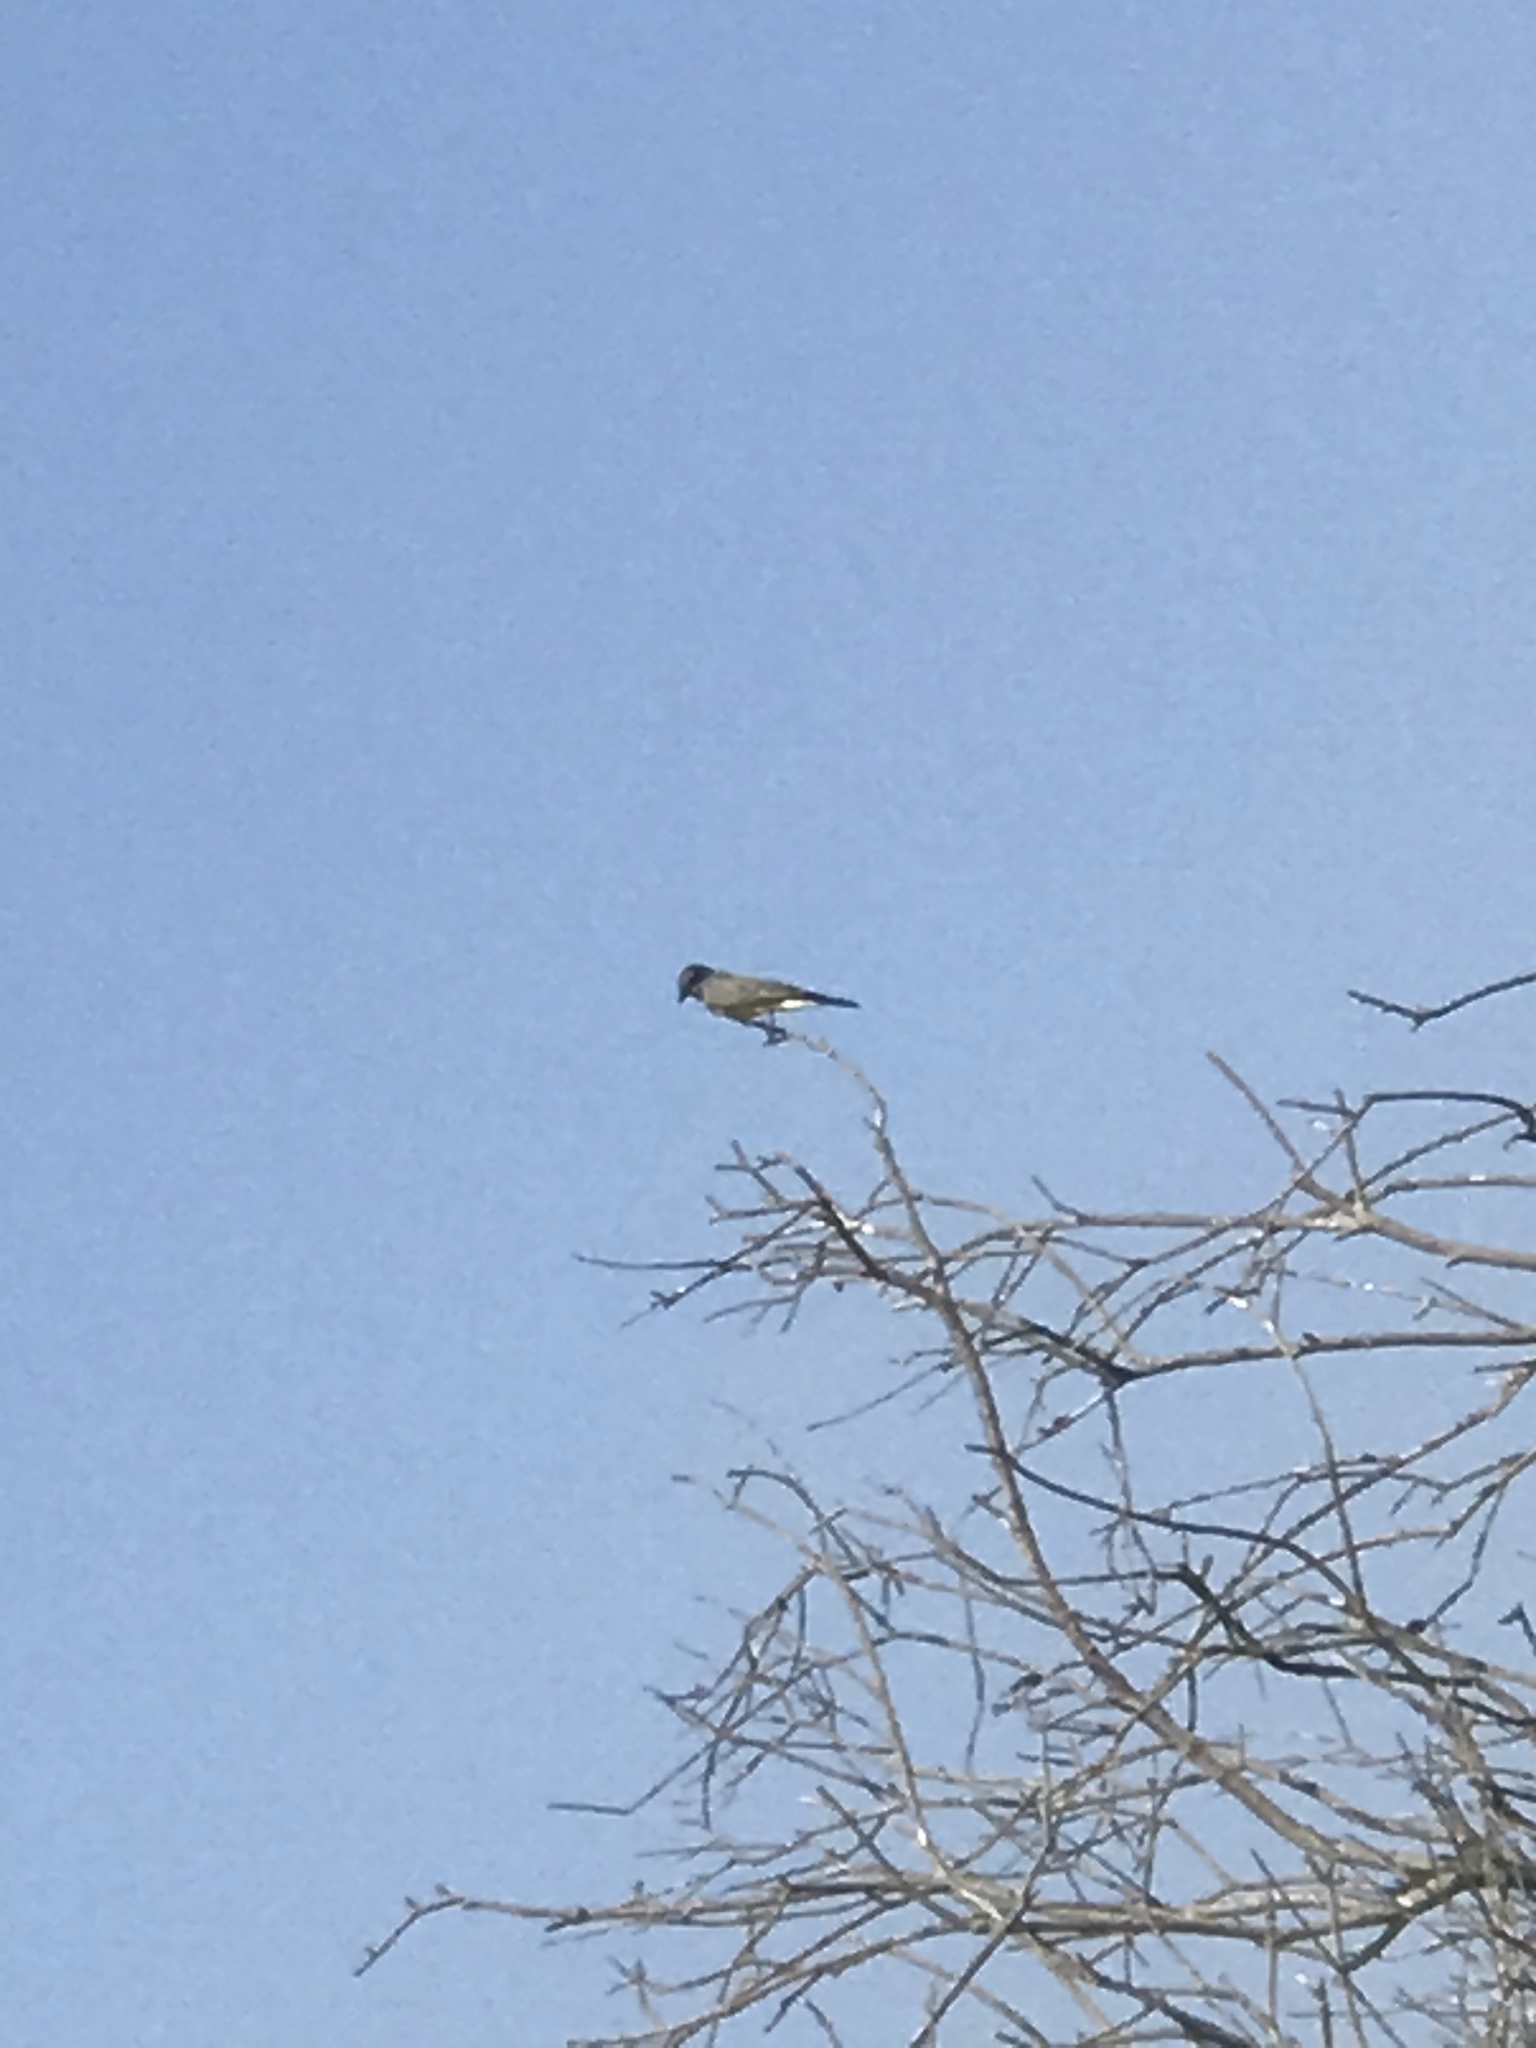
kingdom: Animalia
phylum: Chordata
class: Aves
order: Passeriformes
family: Tyrannidae
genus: Tyrannus
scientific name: Tyrannus
